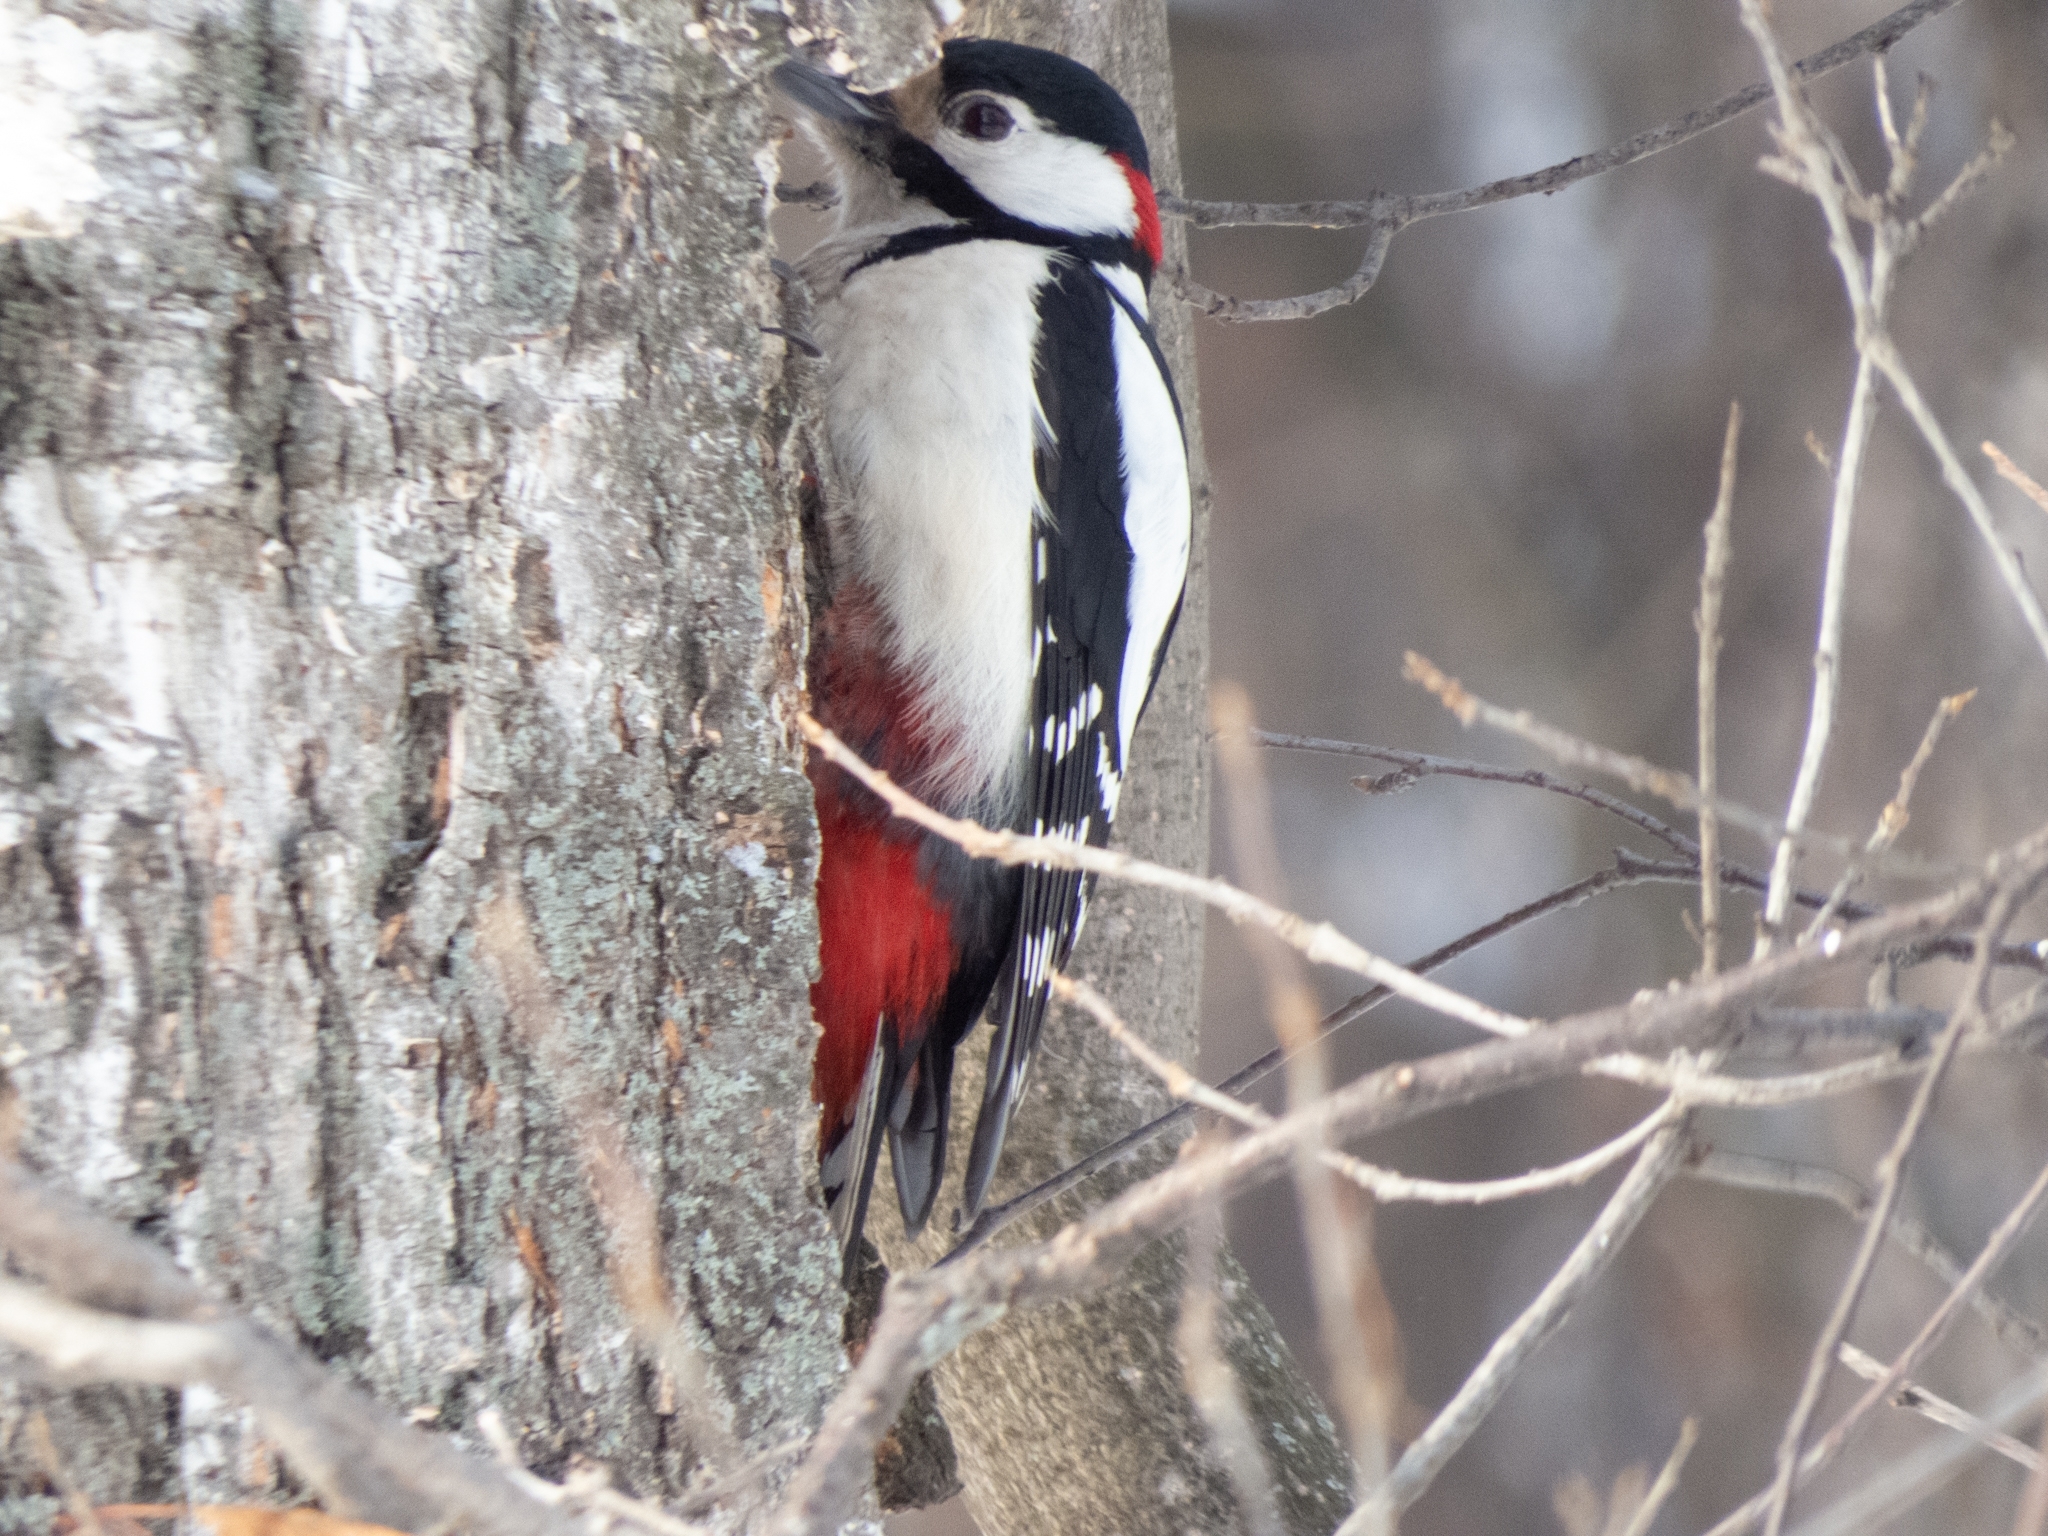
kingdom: Animalia
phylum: Chordata
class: Aves
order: Piciformes
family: Picidae
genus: Dendrocopos
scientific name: Dendrocopos major
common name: Great spotted woodpecker
